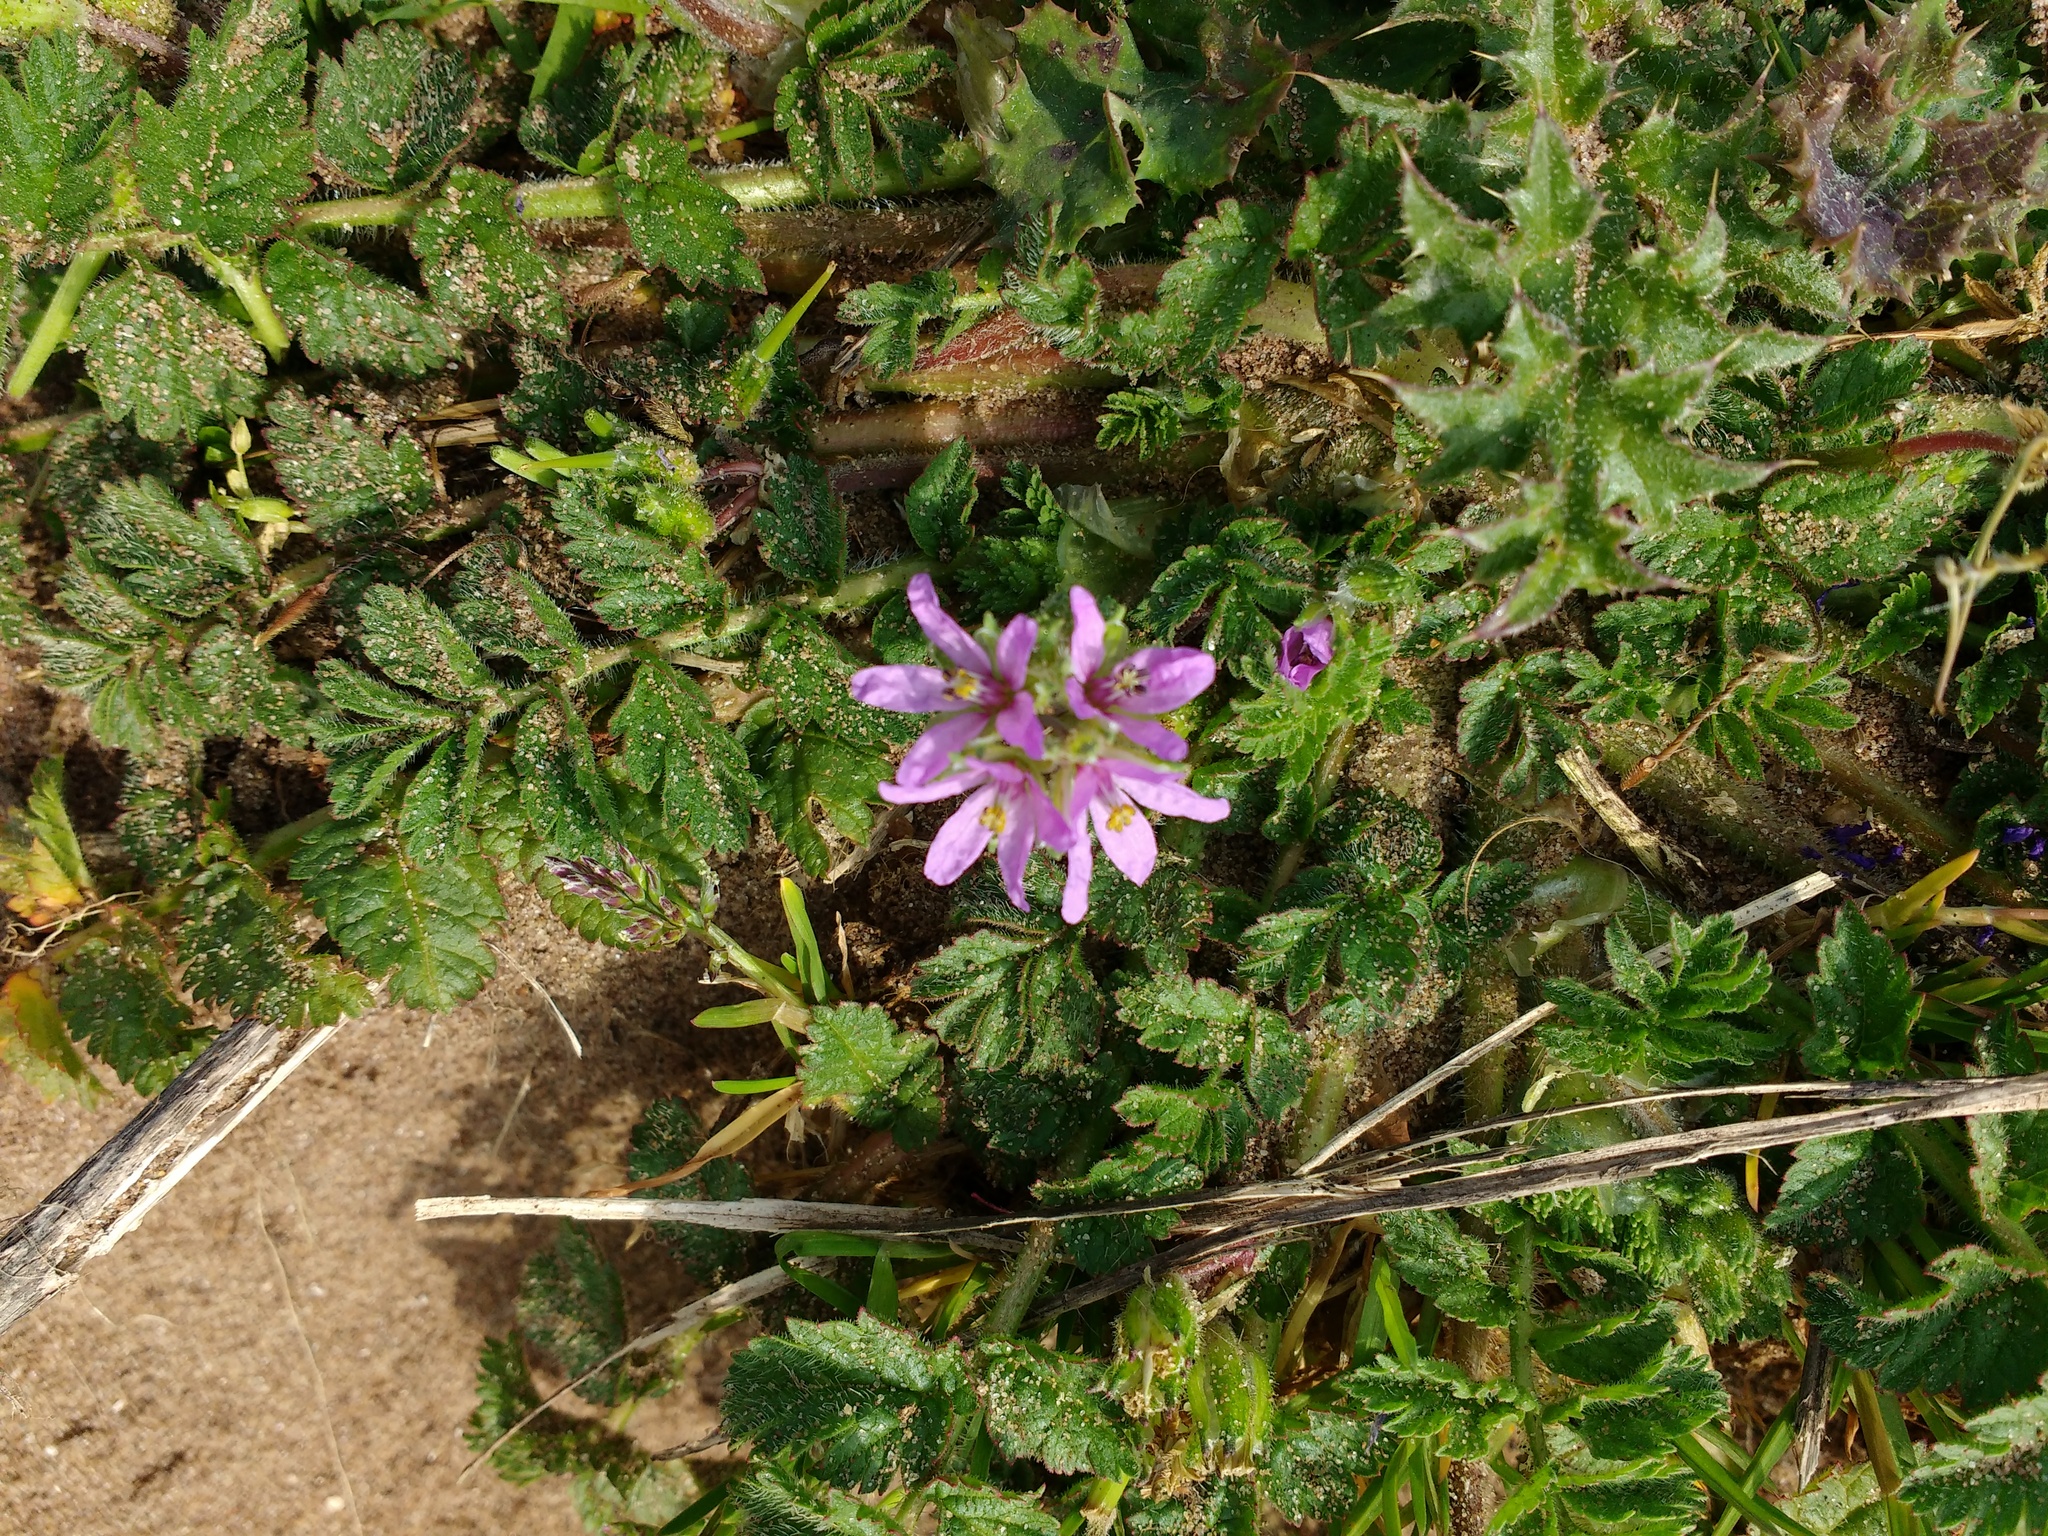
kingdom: Plantae
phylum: Tracheophyta
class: Magnoliopsida
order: Geraniales
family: Geraniaceae
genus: Erodium
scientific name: Erodium moschatum
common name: Musk stork's-bill
